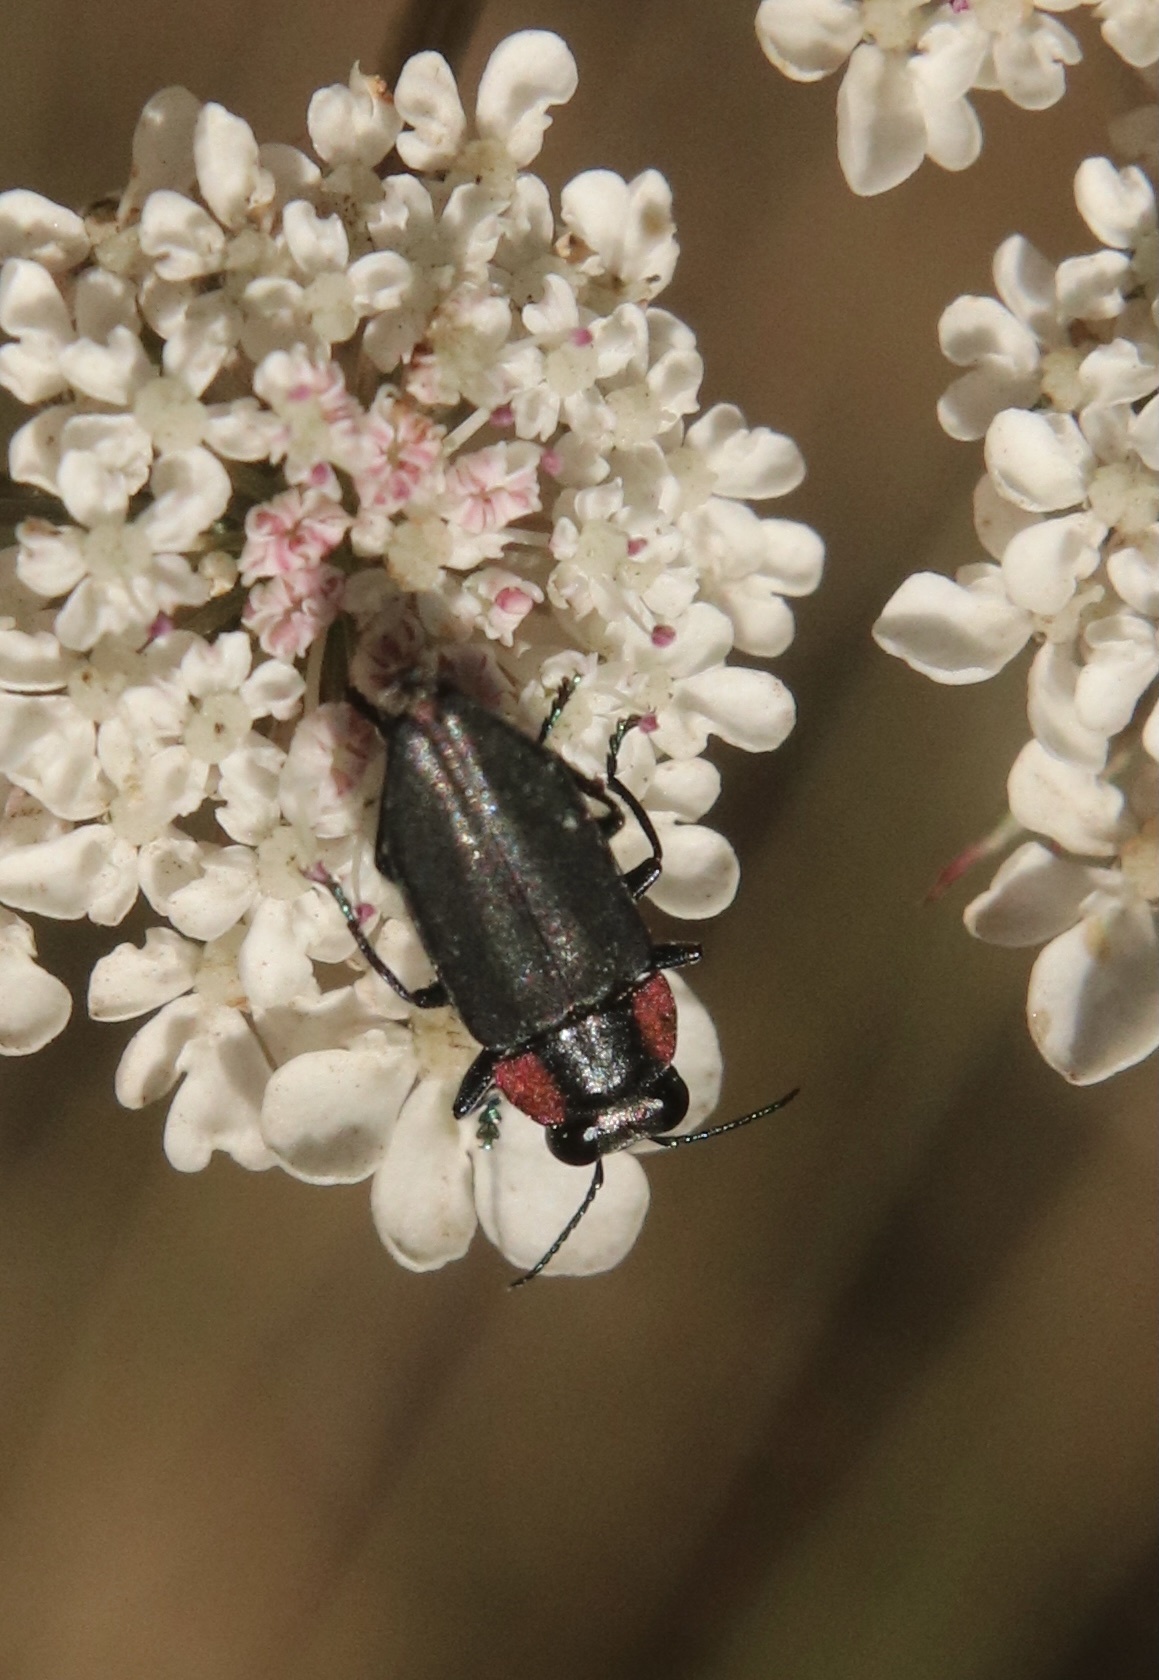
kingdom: Animalia
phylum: Arthropoda
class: Insecta
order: Coleoptera
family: Buprestidae
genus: Romanophora
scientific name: Romanophora verecunda
